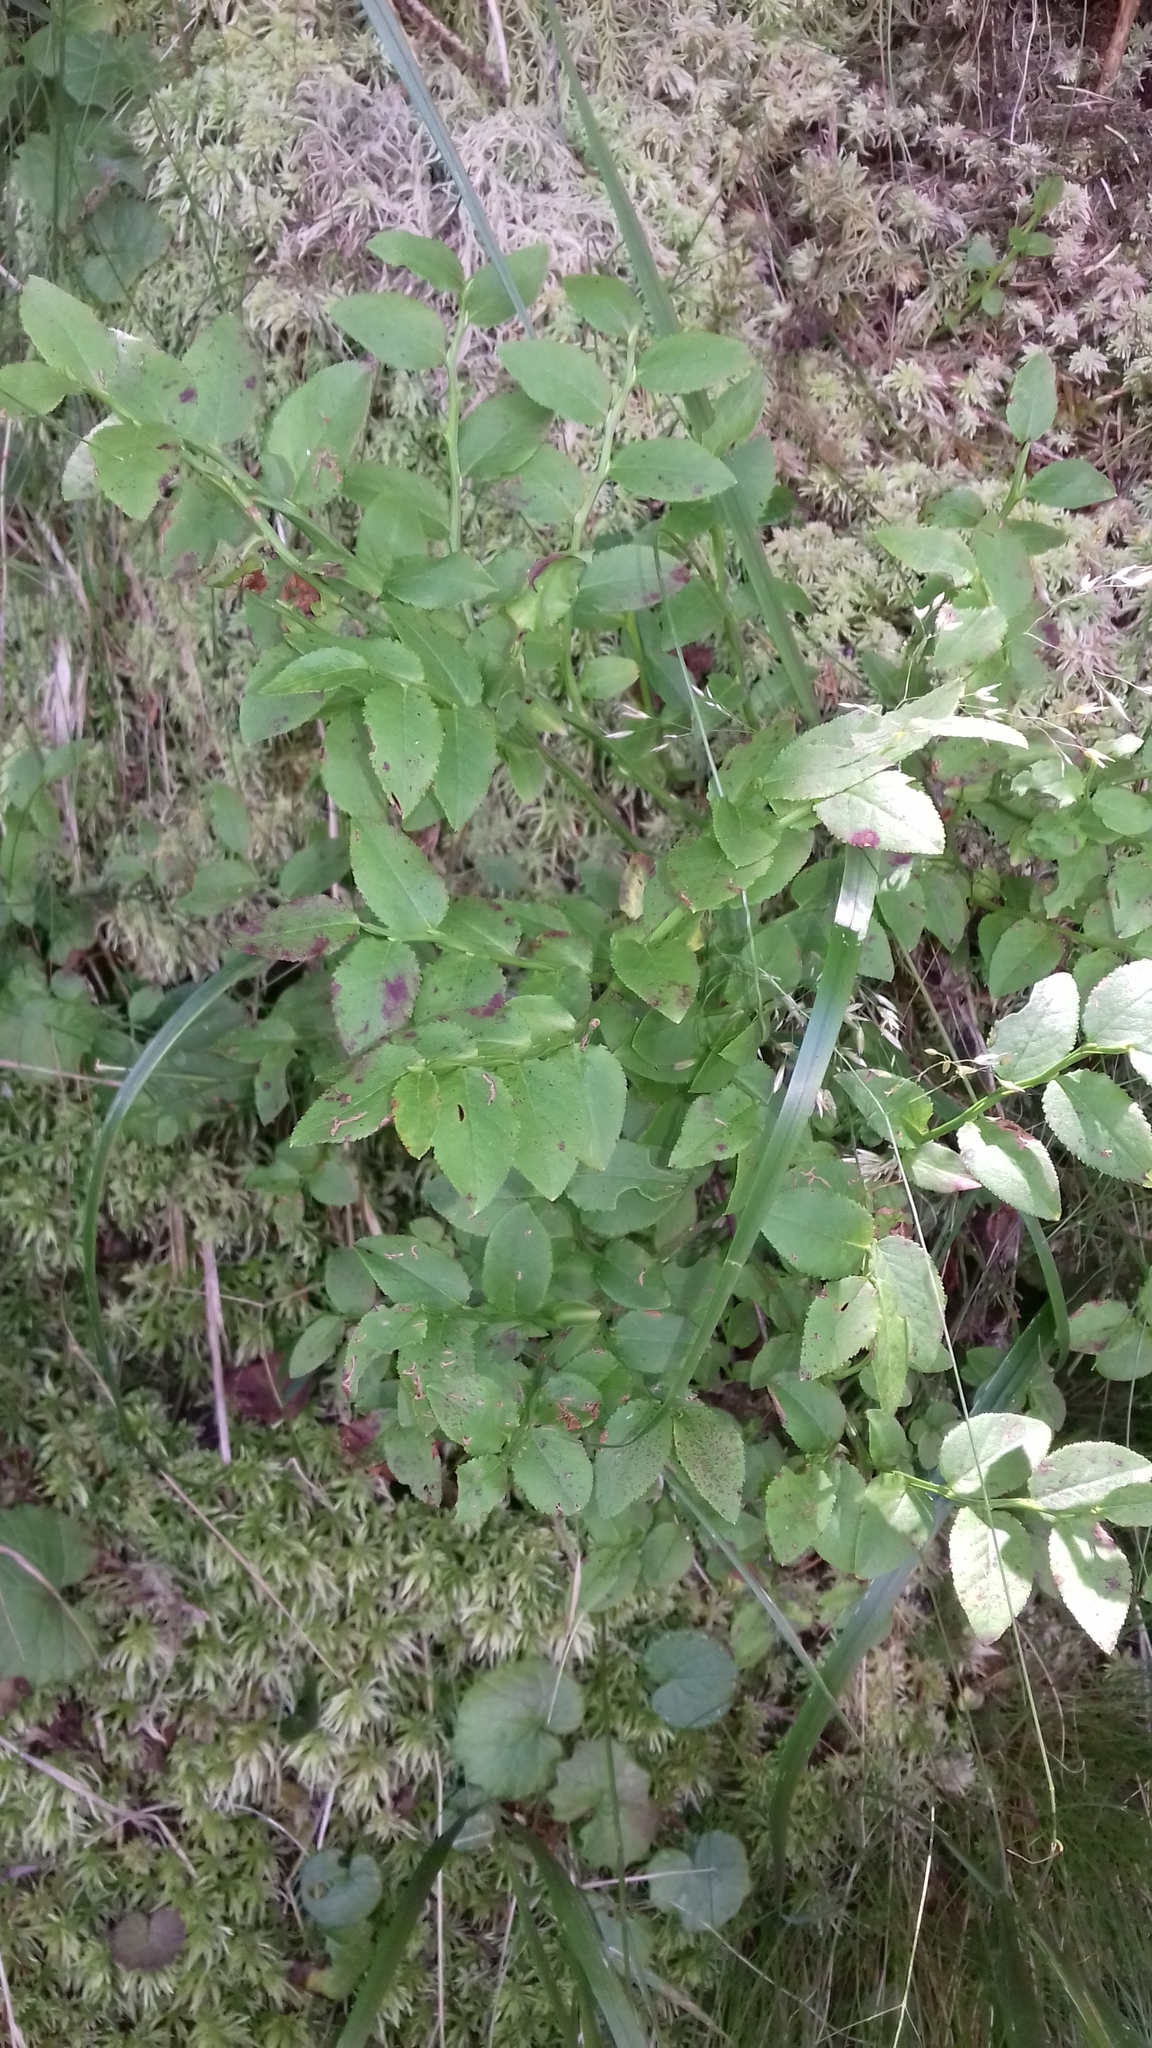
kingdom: Plantae
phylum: Tracheophyta
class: Magnoliopsida
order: Ericales
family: Ericaceae
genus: Vaccinium
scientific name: Vaccinium myrtillus
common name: Bilberry
